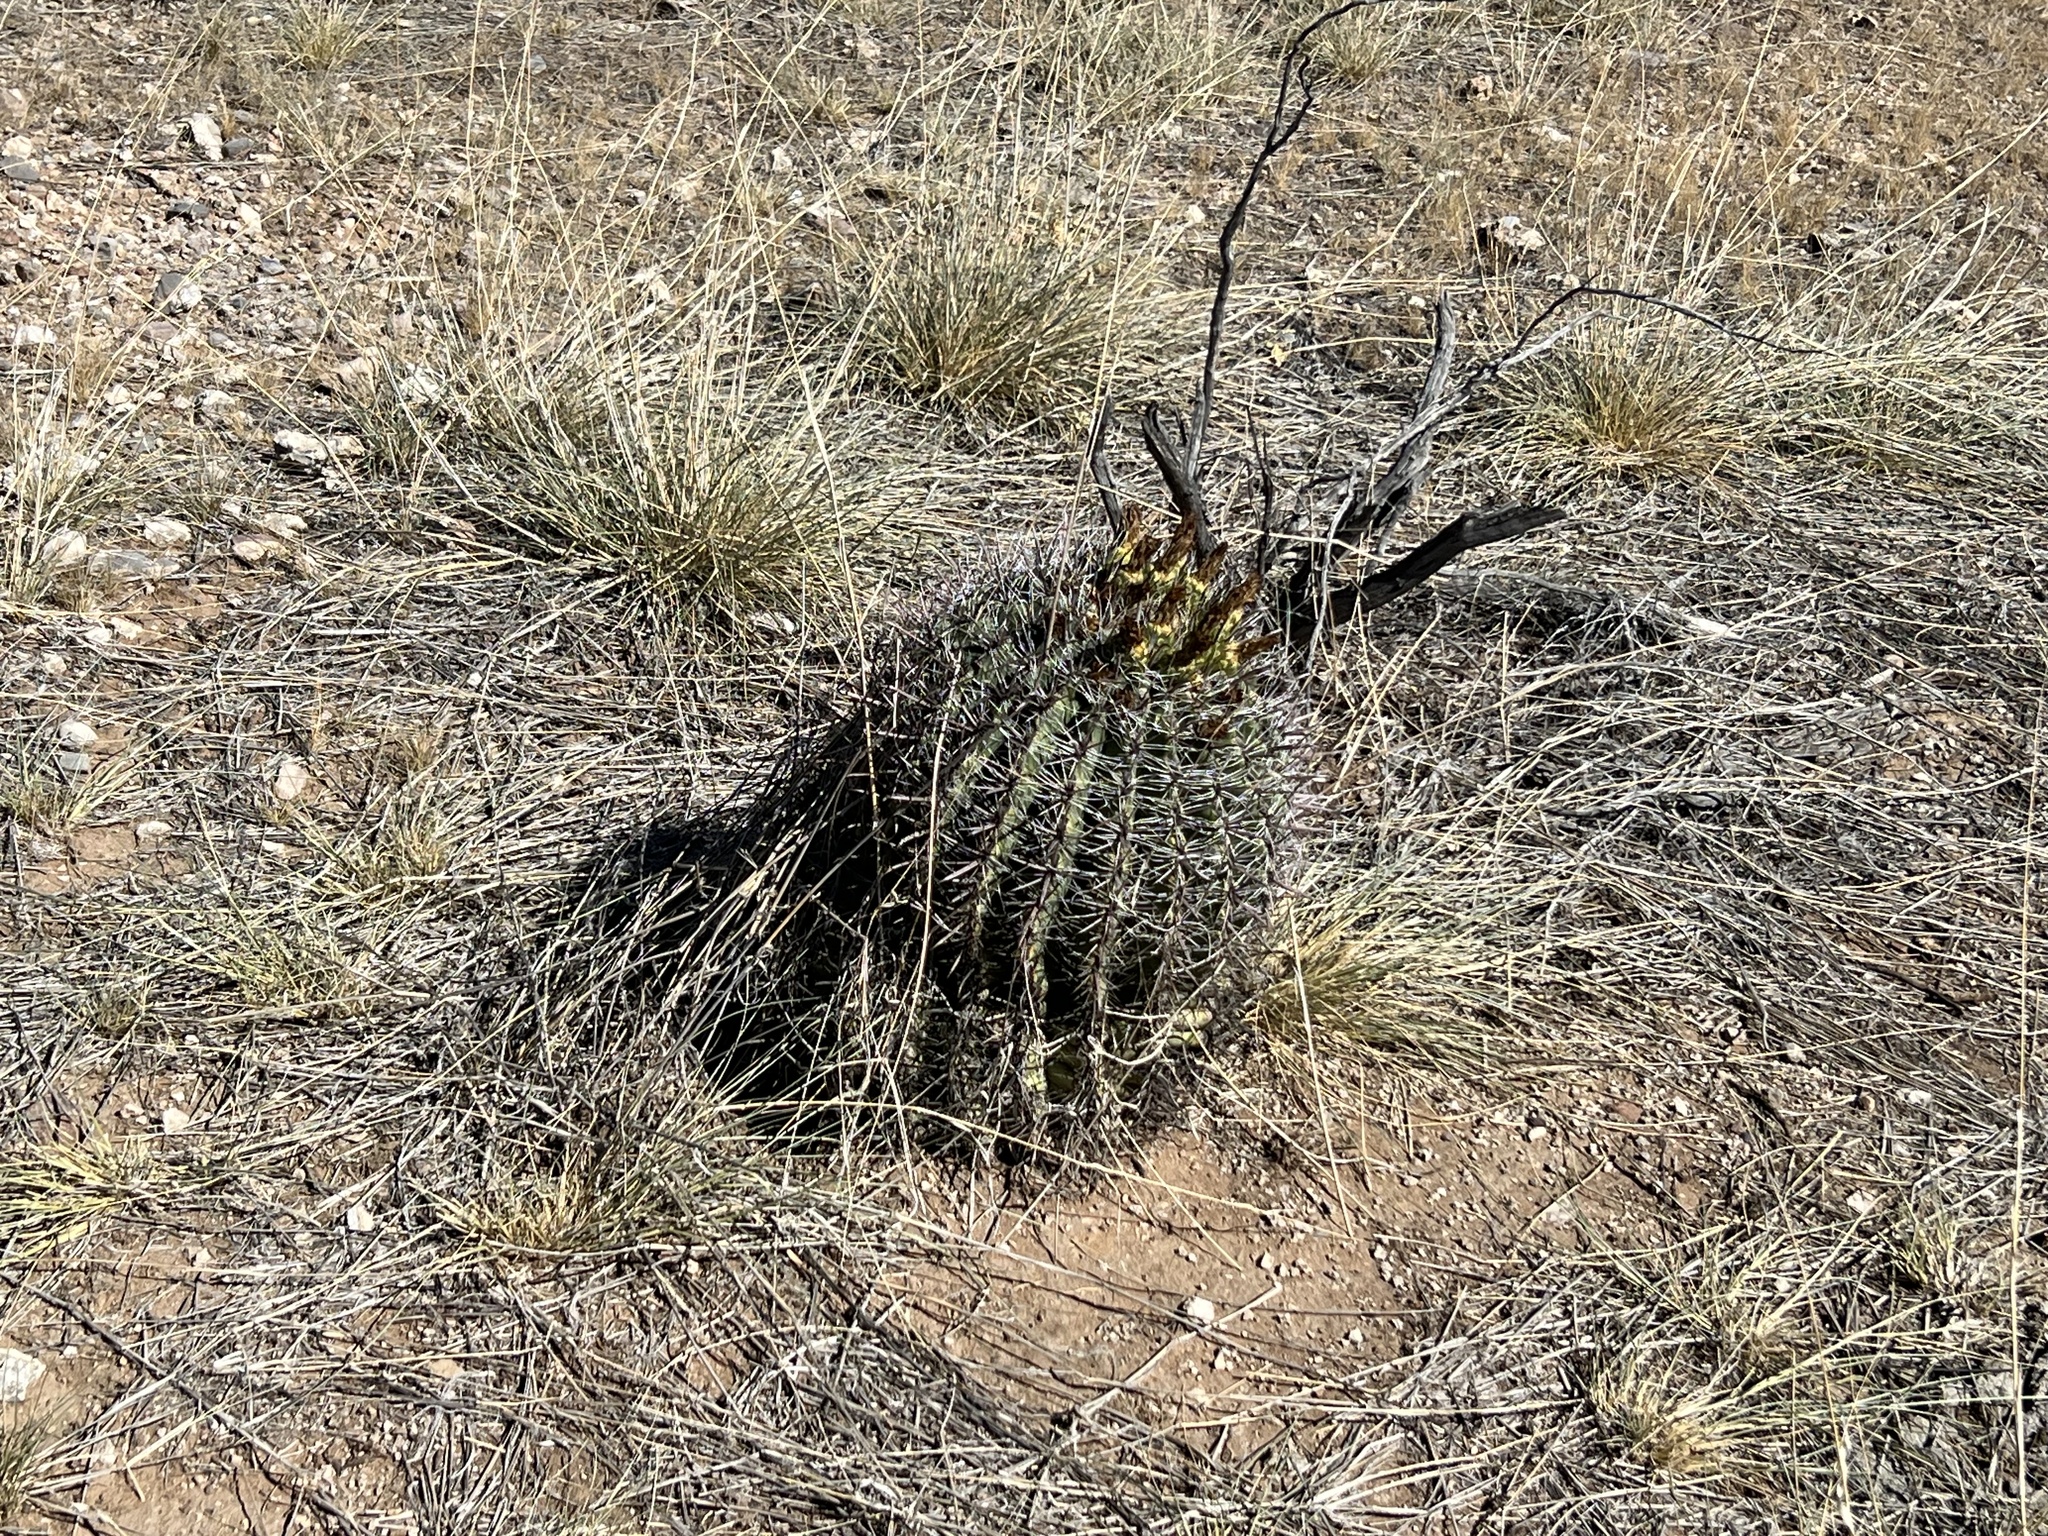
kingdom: Plantae
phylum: Tracheophyta
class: Magnoliopsida
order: Caryophyllales
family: Cactaceae
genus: Ferocactus
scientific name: Ferocactus wislizeni
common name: Candy barrel cactus
